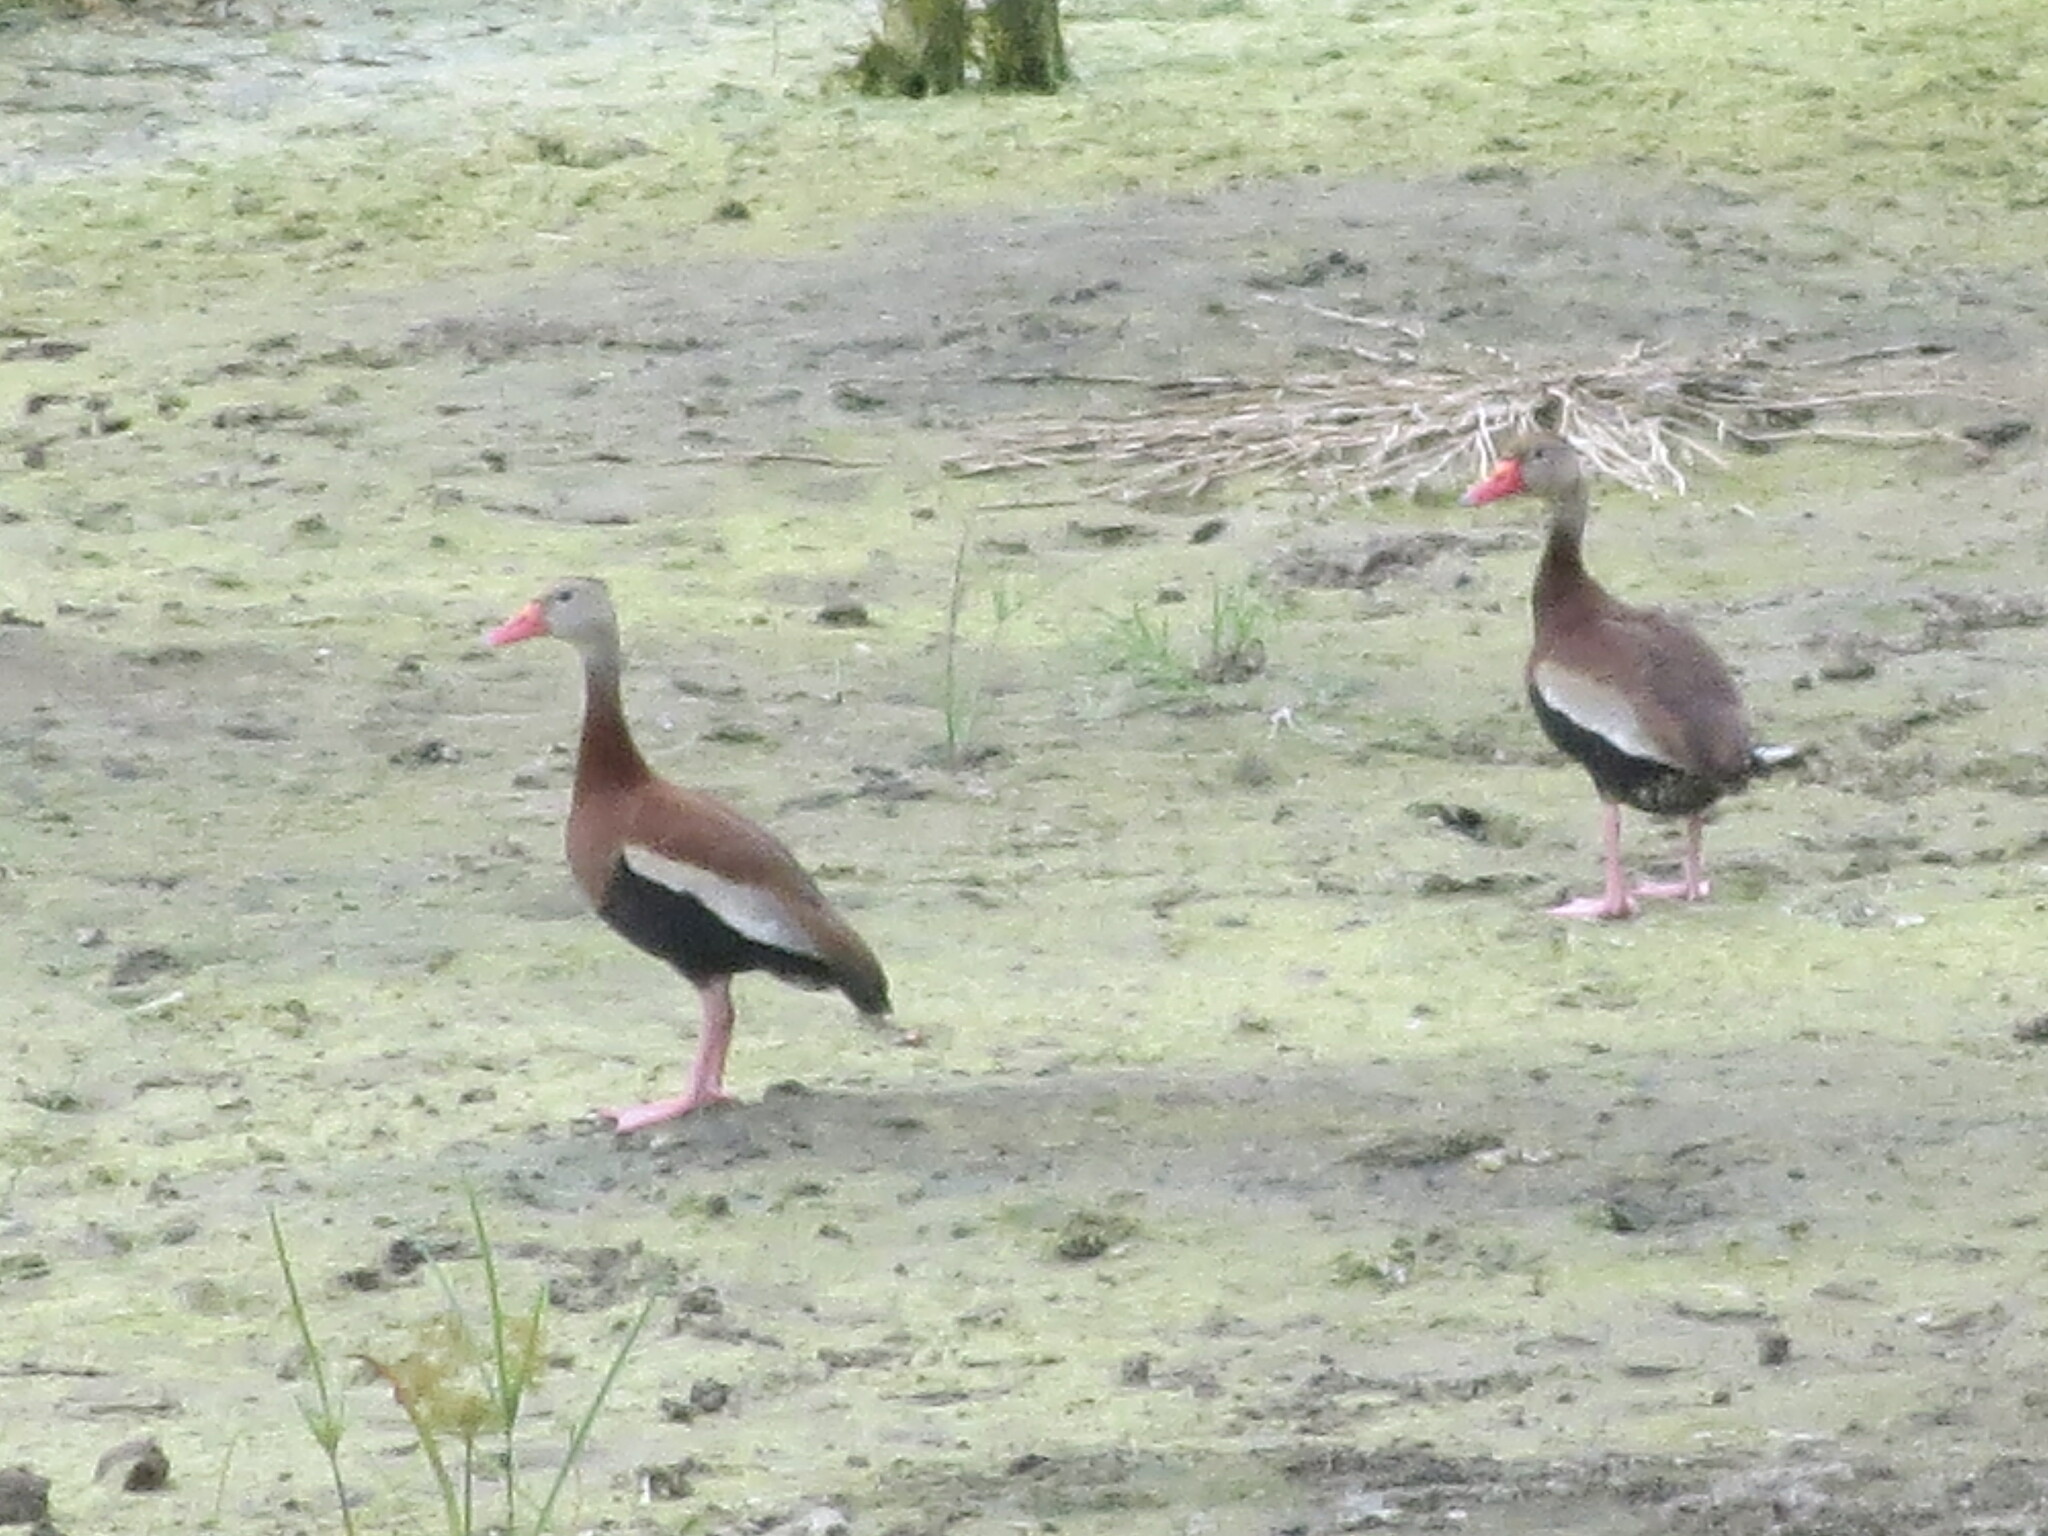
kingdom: Animalia
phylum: Chordata
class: Aves
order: Anseriformes
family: Anatidae
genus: Dendrocygna
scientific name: Dendrocygna autumnalis
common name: Black-bellied whistling duck
